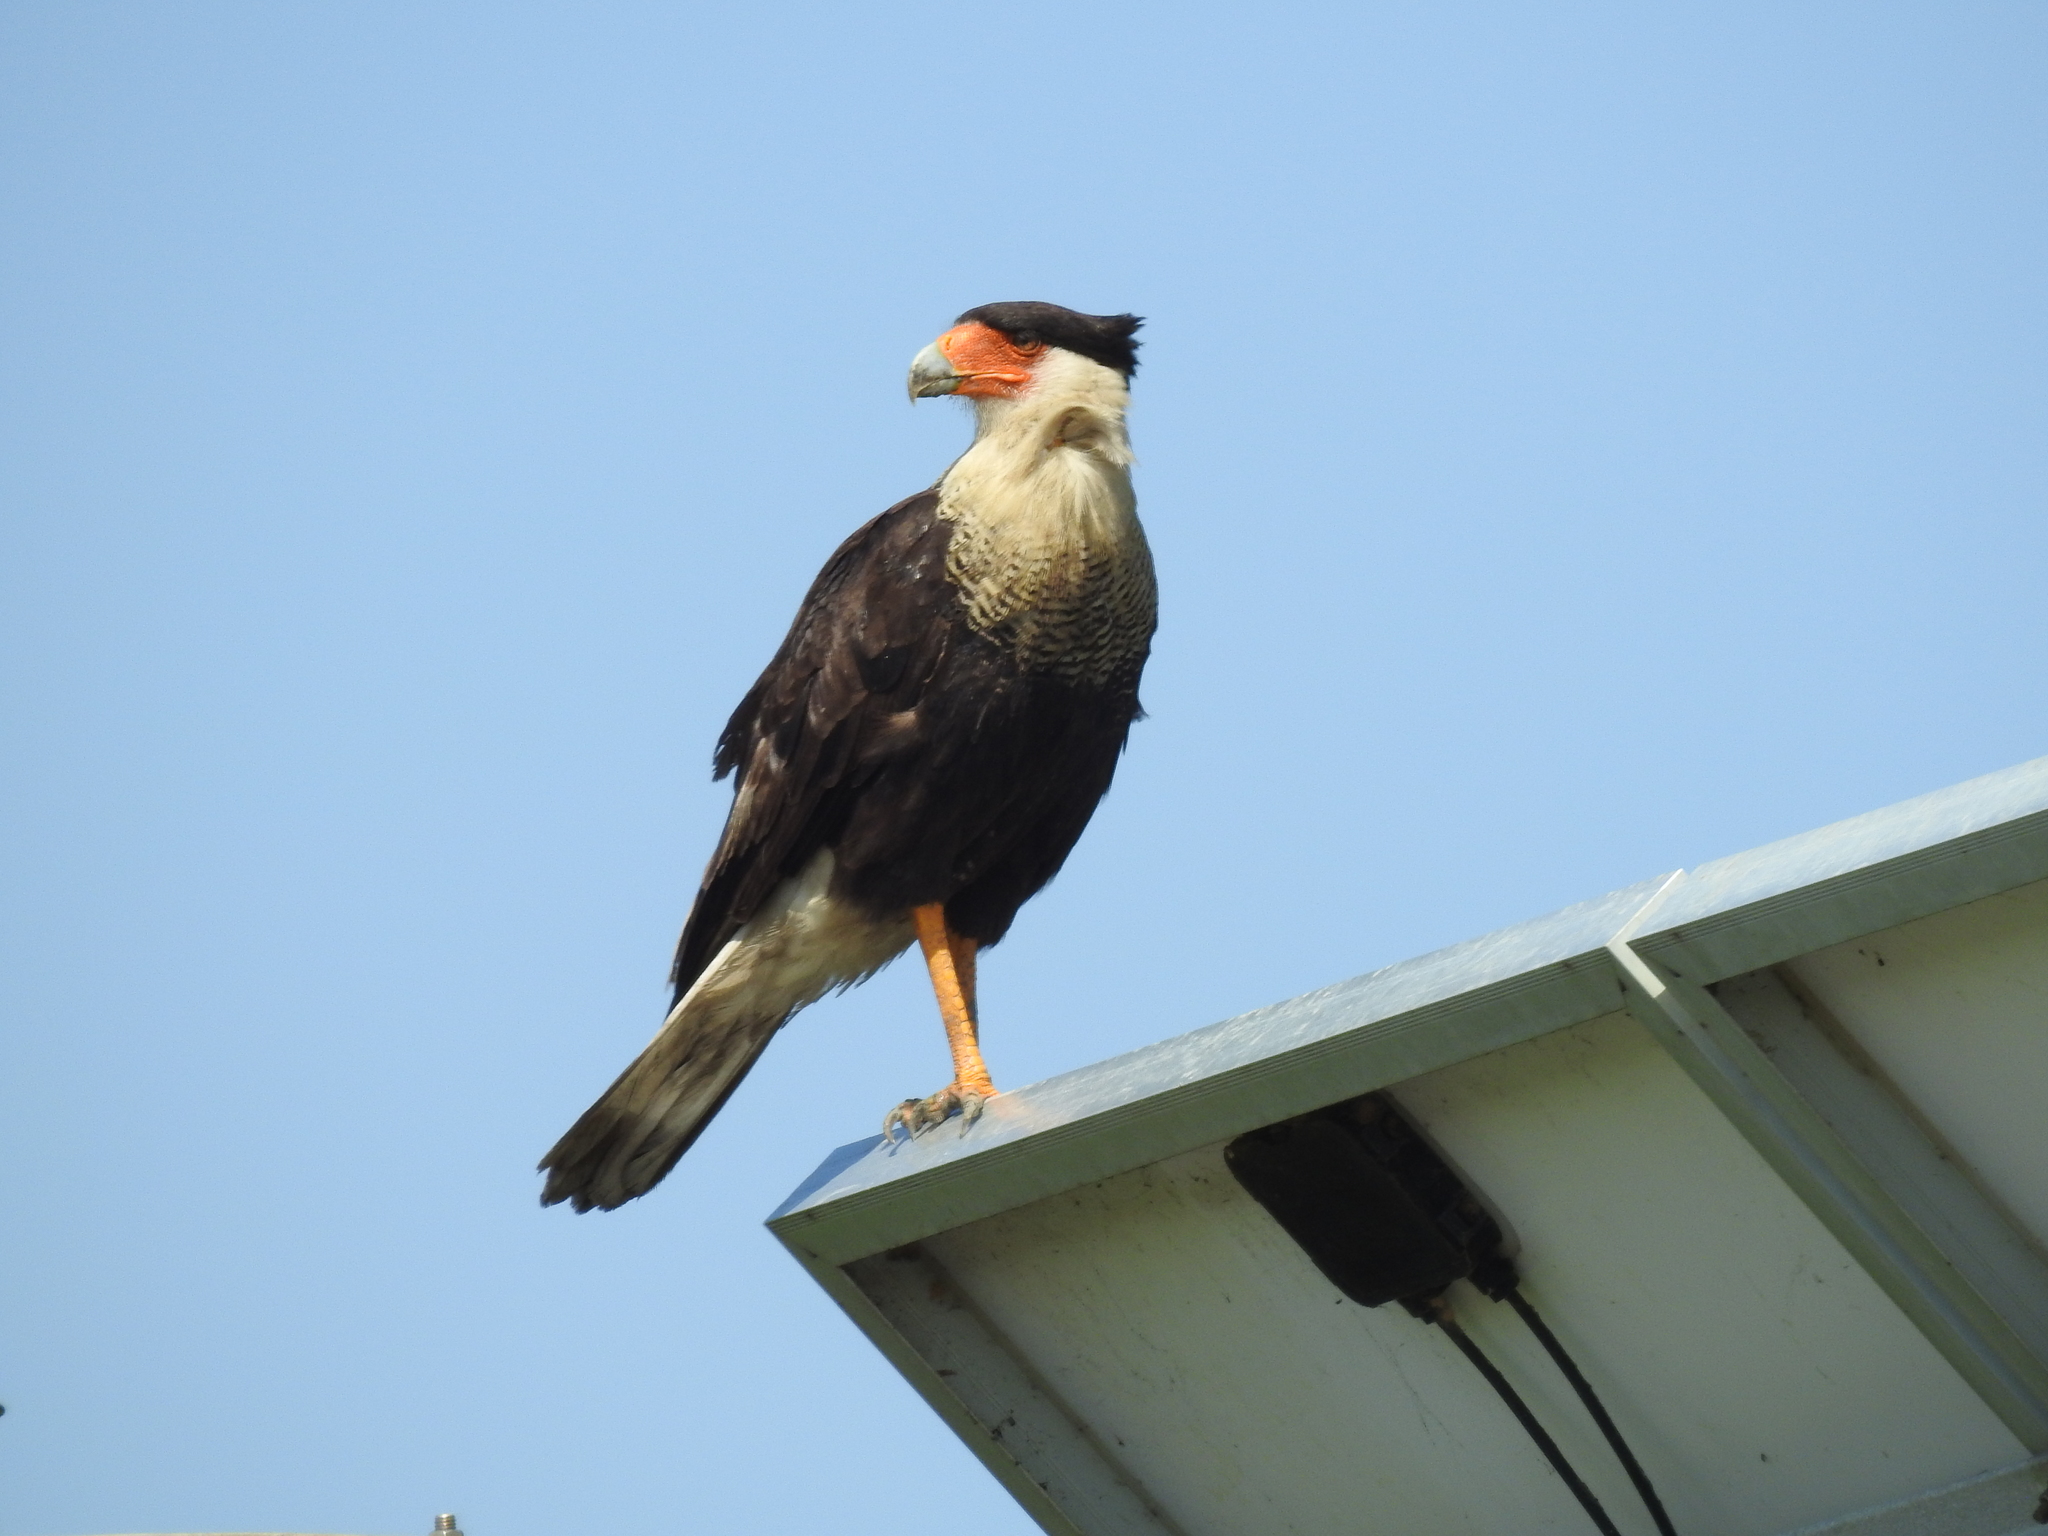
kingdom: Animalia
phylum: Chordata
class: Aves
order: Falconiformes
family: Falconidae
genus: Caracara
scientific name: Caracara plancus
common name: Southern caracara
